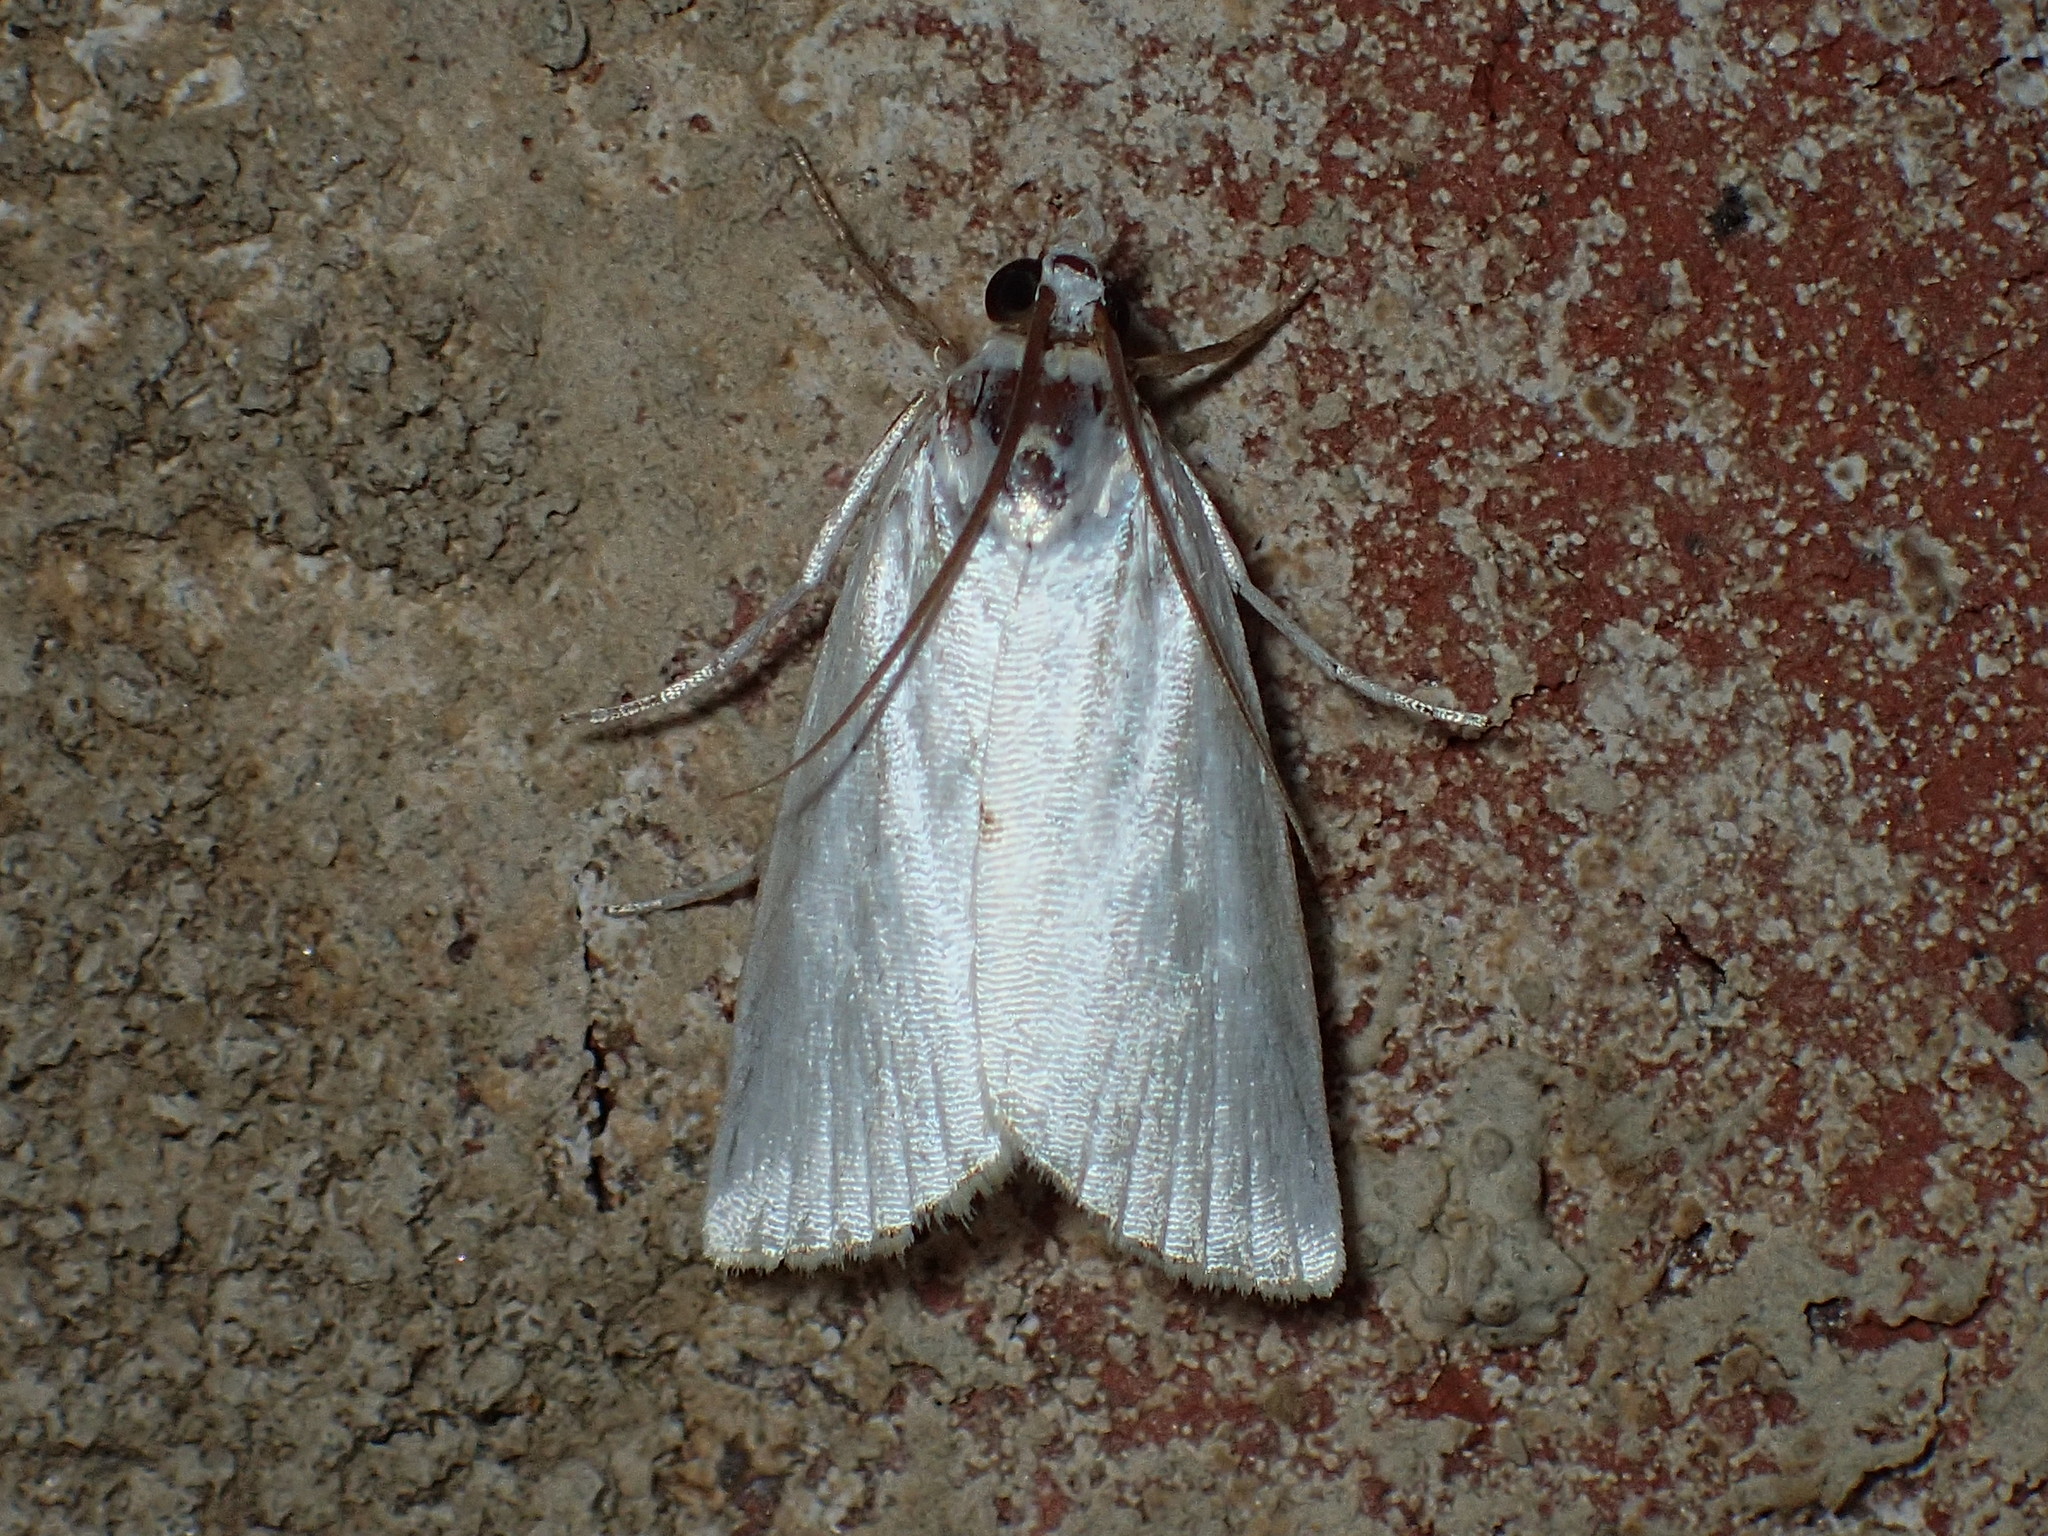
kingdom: Animalia
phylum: Arthropoda
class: Insecta
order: Lepidoptera
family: Crambidae
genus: Argyria
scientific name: Argyria nivalis
